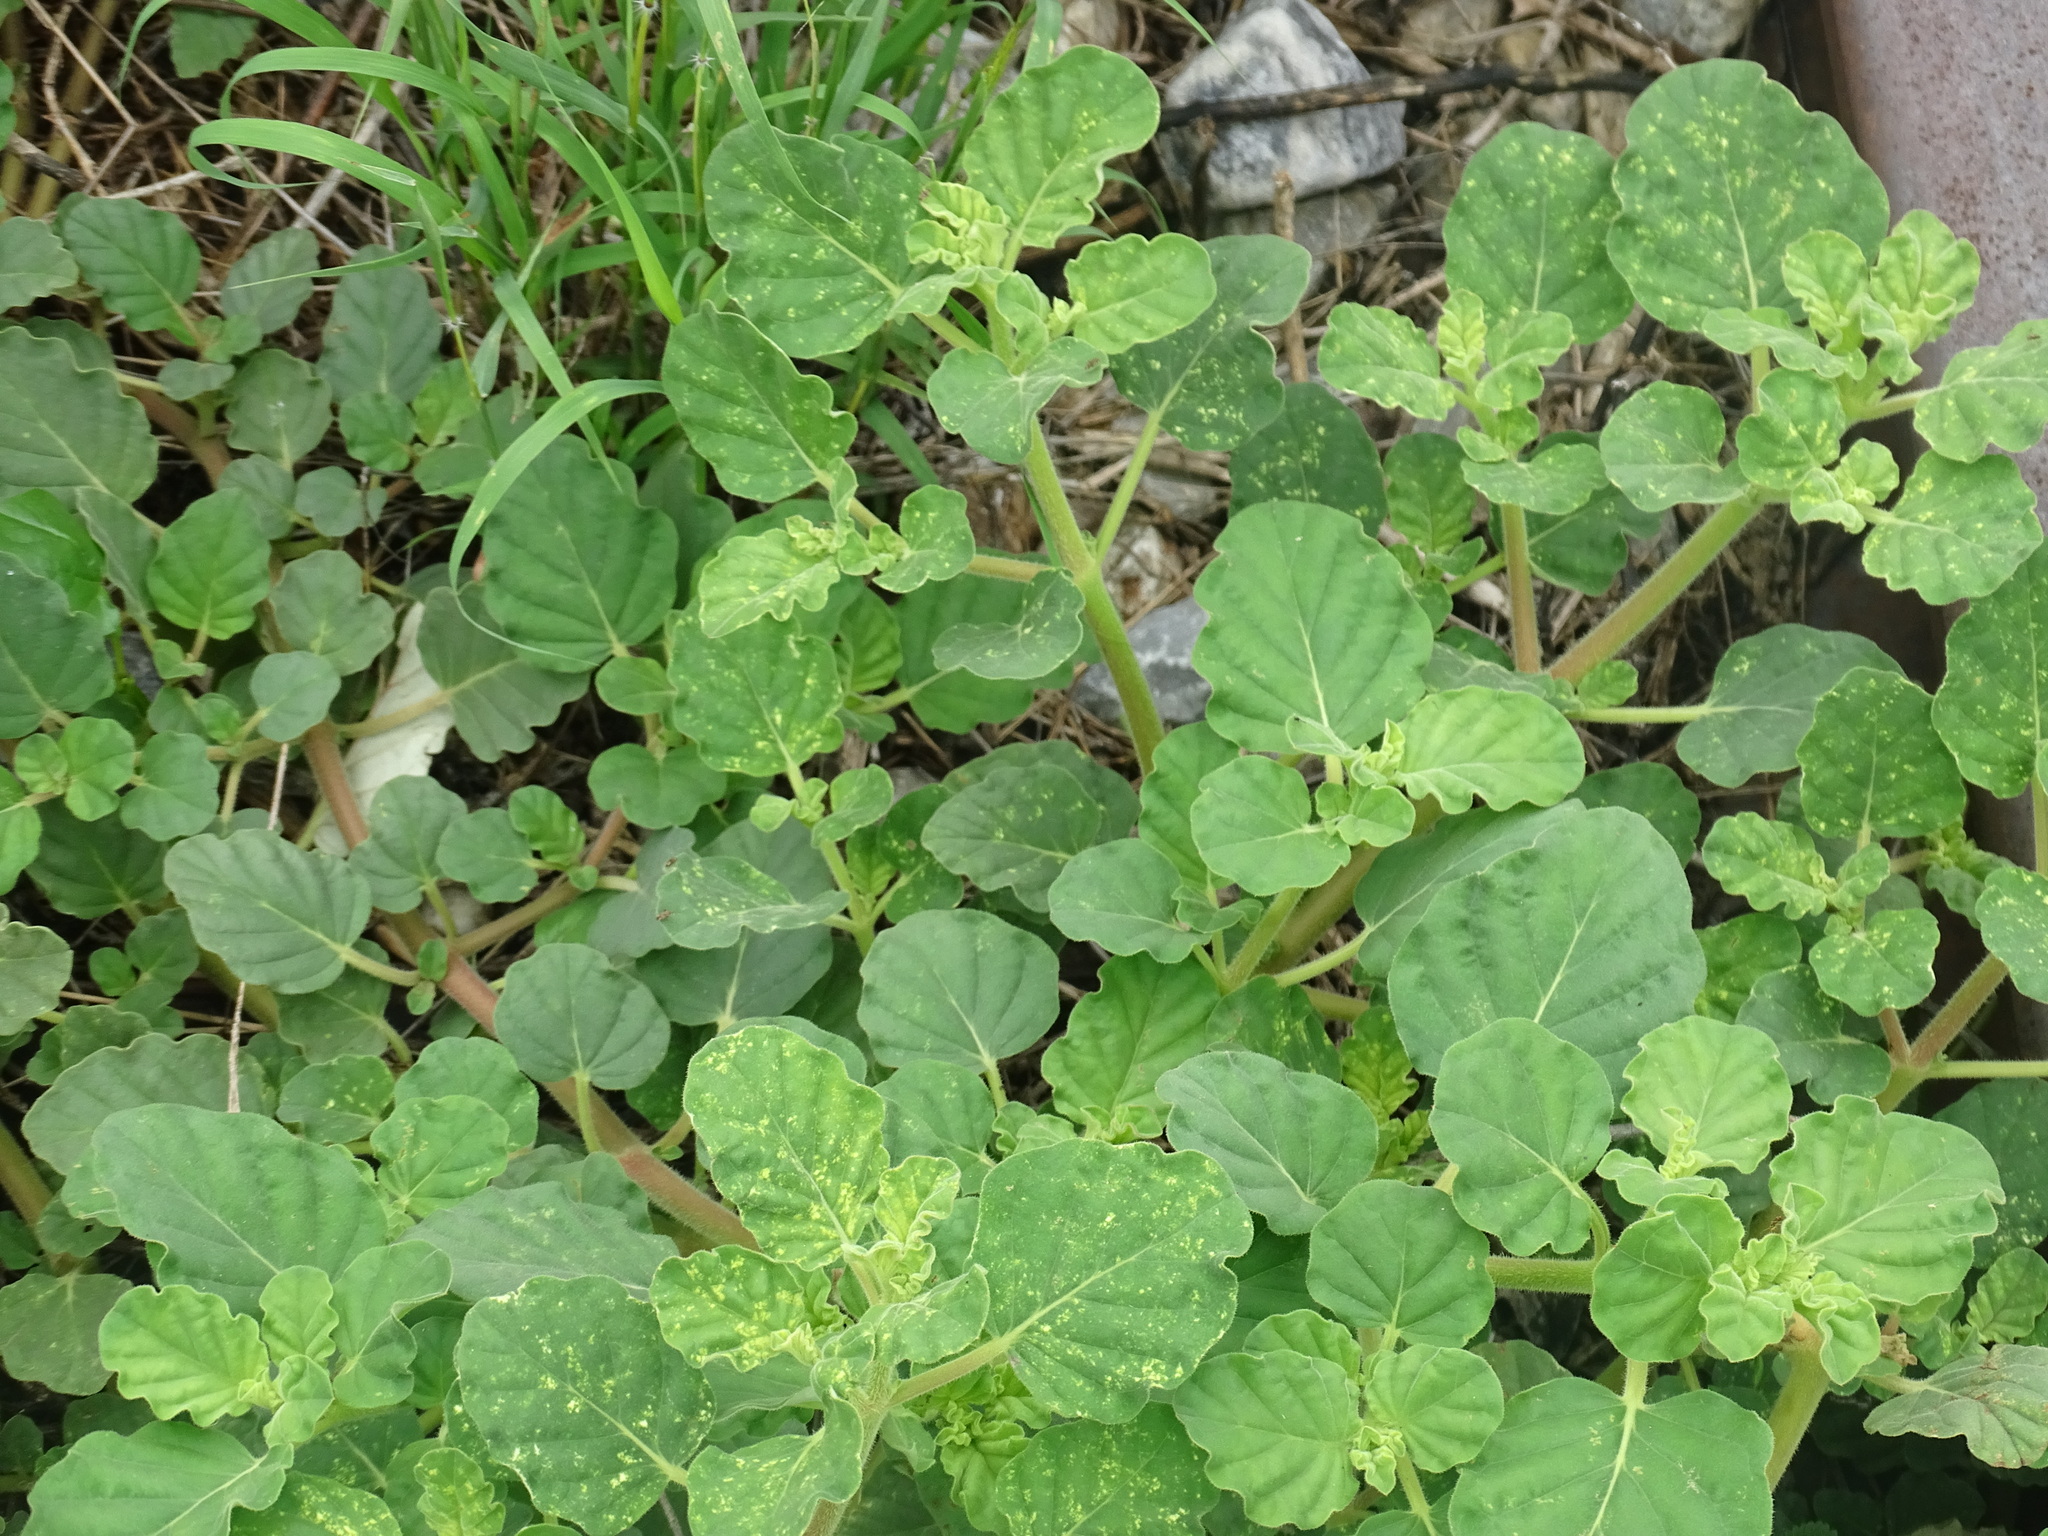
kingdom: Plantae
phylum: Tracheophyta
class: Magnoliopsida
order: Caryophyllales
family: Nyctaginaceae
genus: Boerhavia
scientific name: Boerhavia coccinea
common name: Scarlet spiderling
